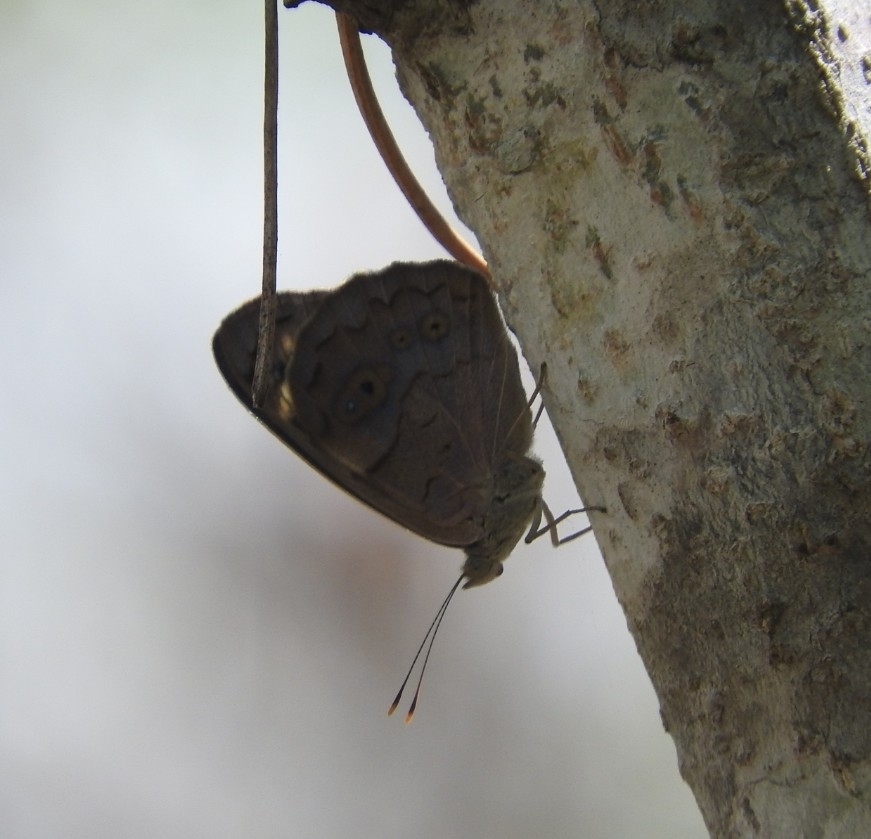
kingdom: Animalia
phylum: Arthropoda
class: Insecta
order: Lepidoptera
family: Nymphalidae
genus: Eunica
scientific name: Eunica monima
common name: Dingy purplewing
